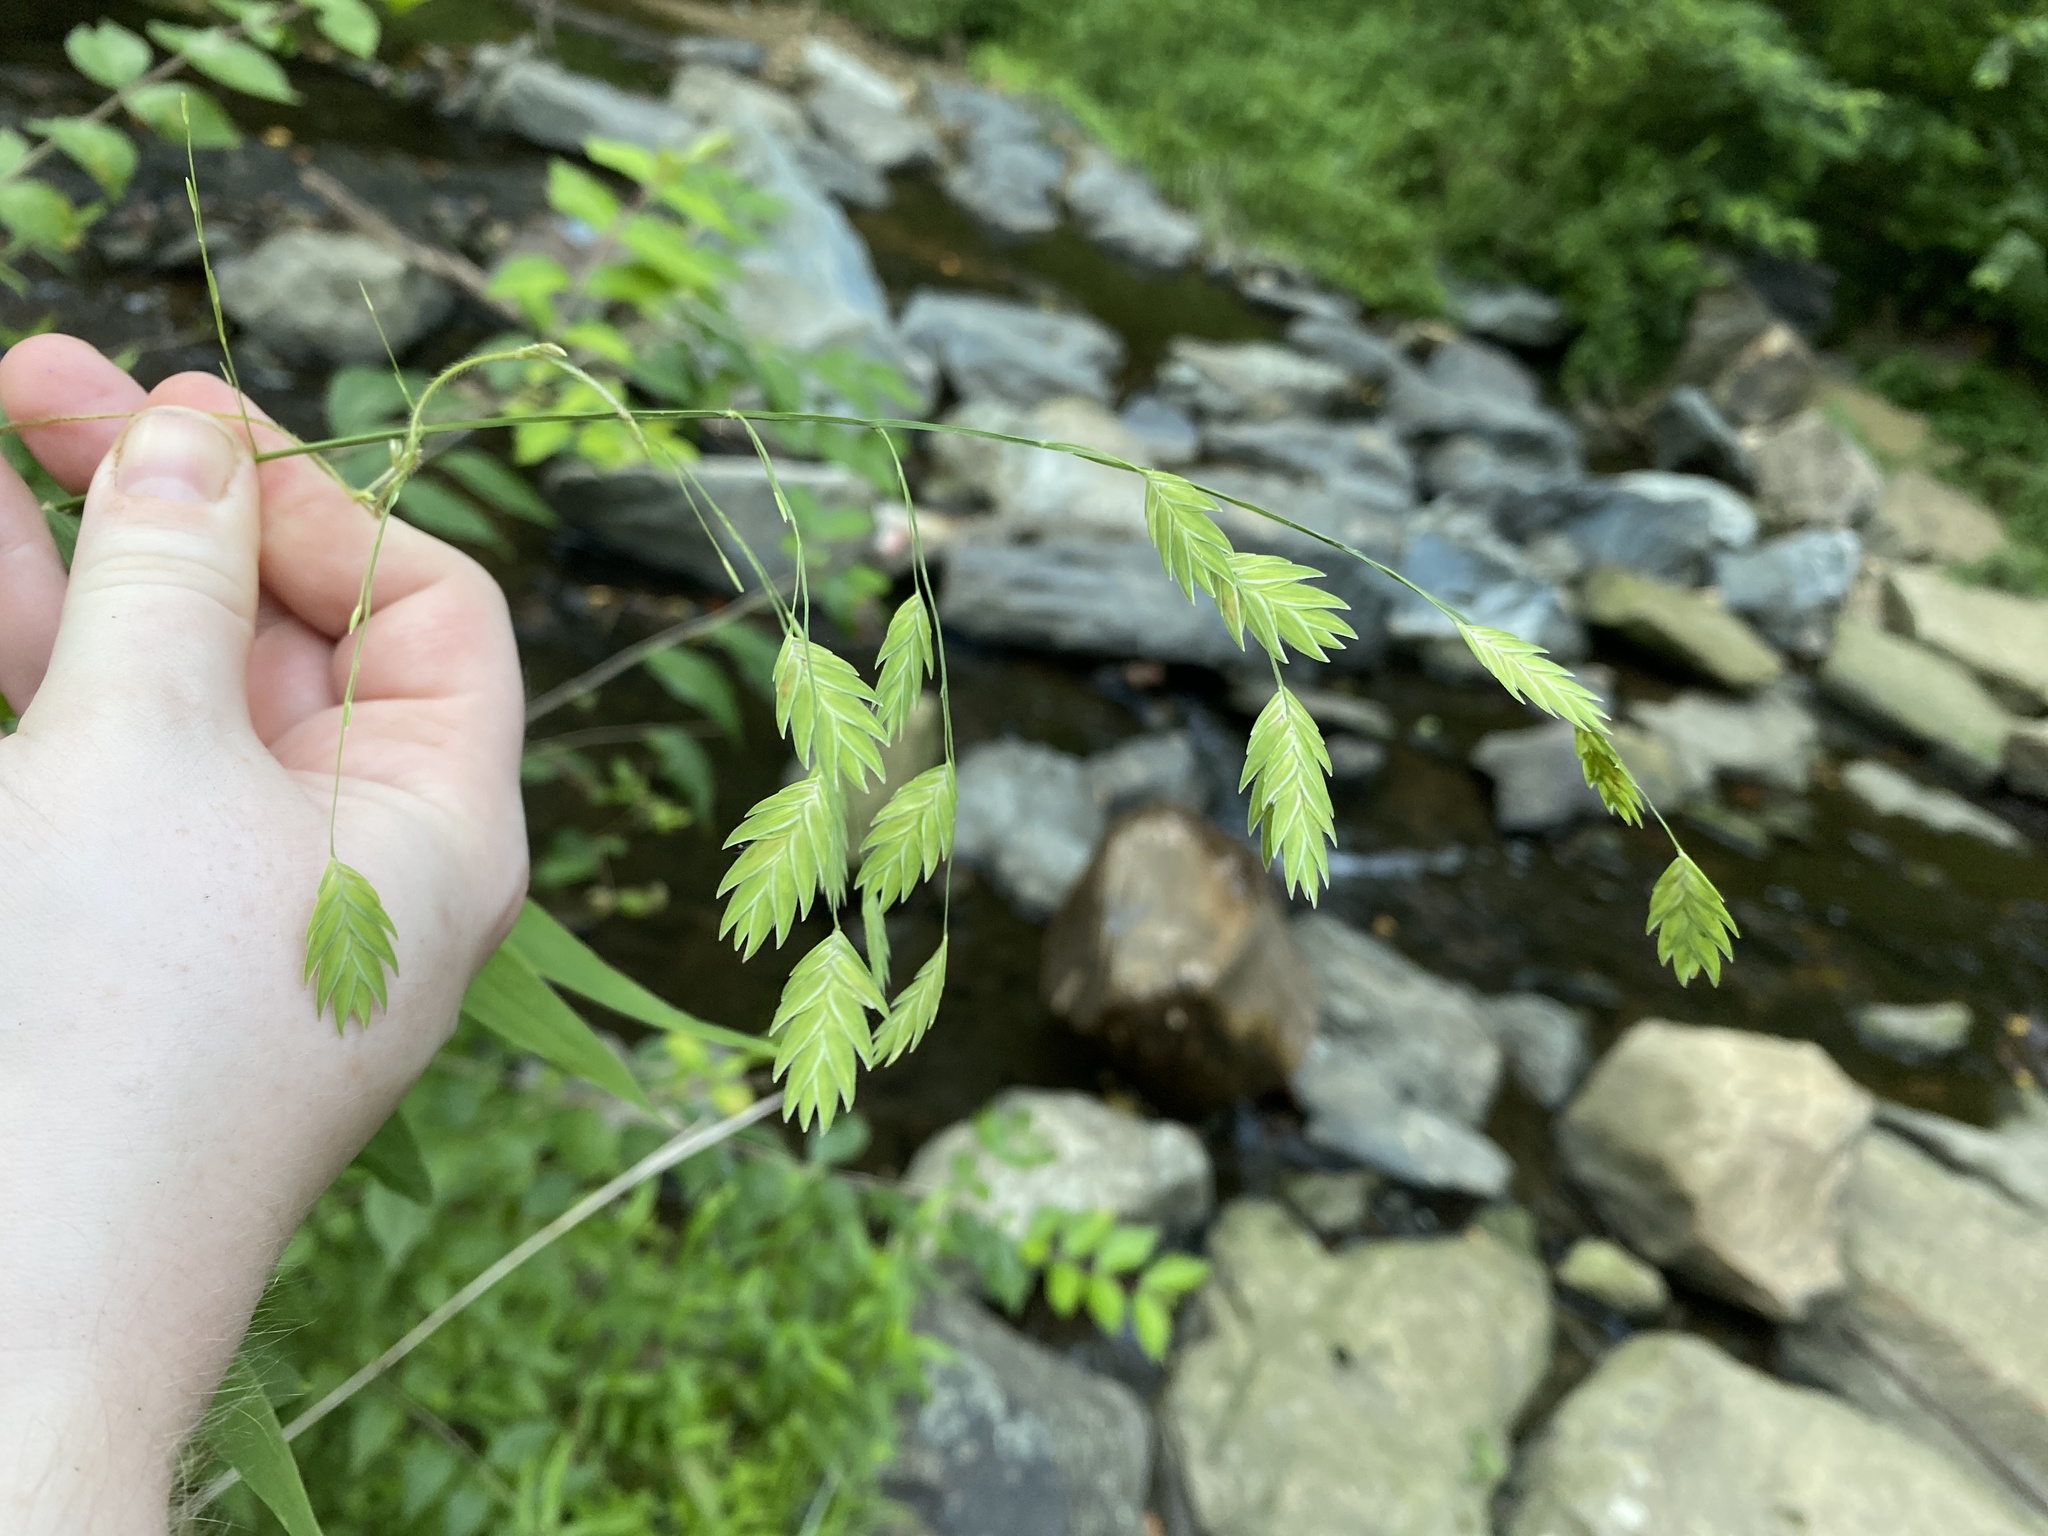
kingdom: Plantae
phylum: Tracheophyta
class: Liliopsida
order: Poales
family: Poaceae
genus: Chasmanthium
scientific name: Chasmanthium latifolium
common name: Broad-leaved chasmanthium
